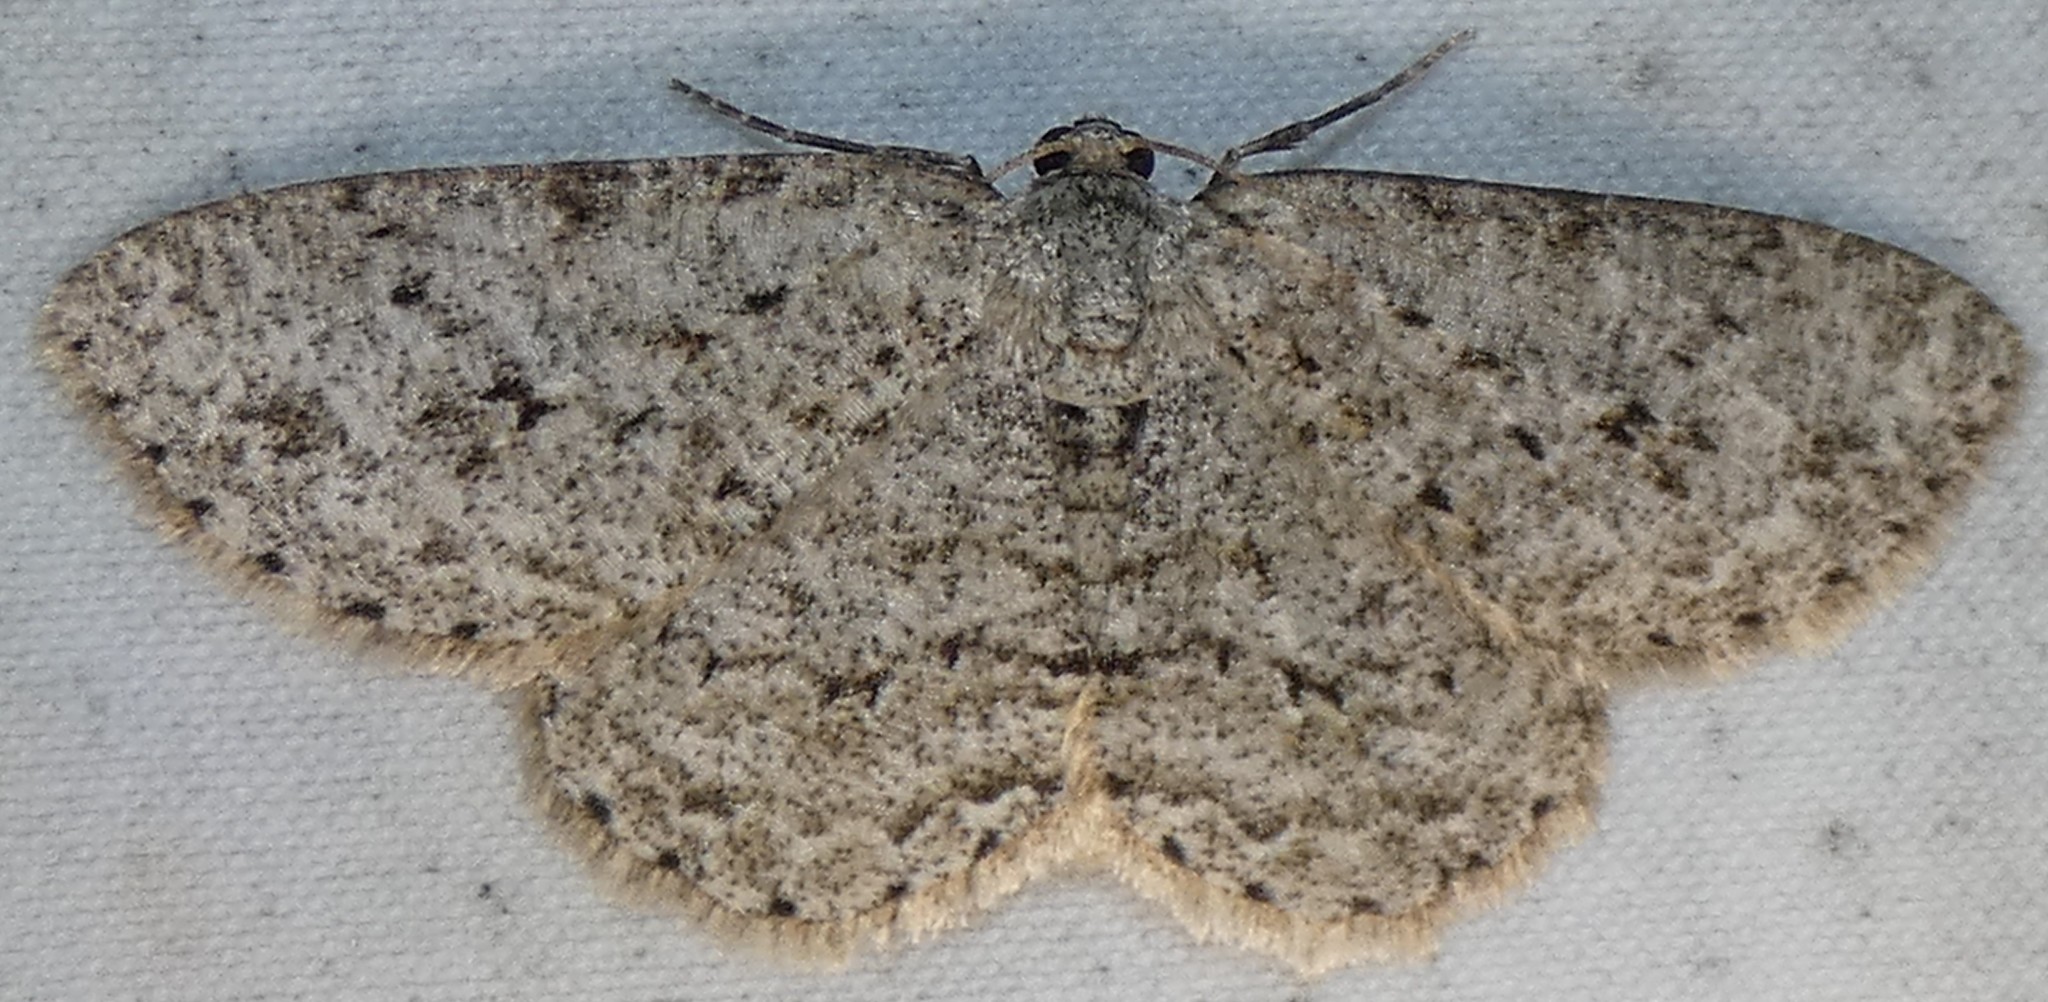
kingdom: Animalia
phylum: Arthropoda
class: Insecta
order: Lepidoptera
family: Geometridae
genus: Ectropis
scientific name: Ectropis crepuscularia
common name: Engrailed
